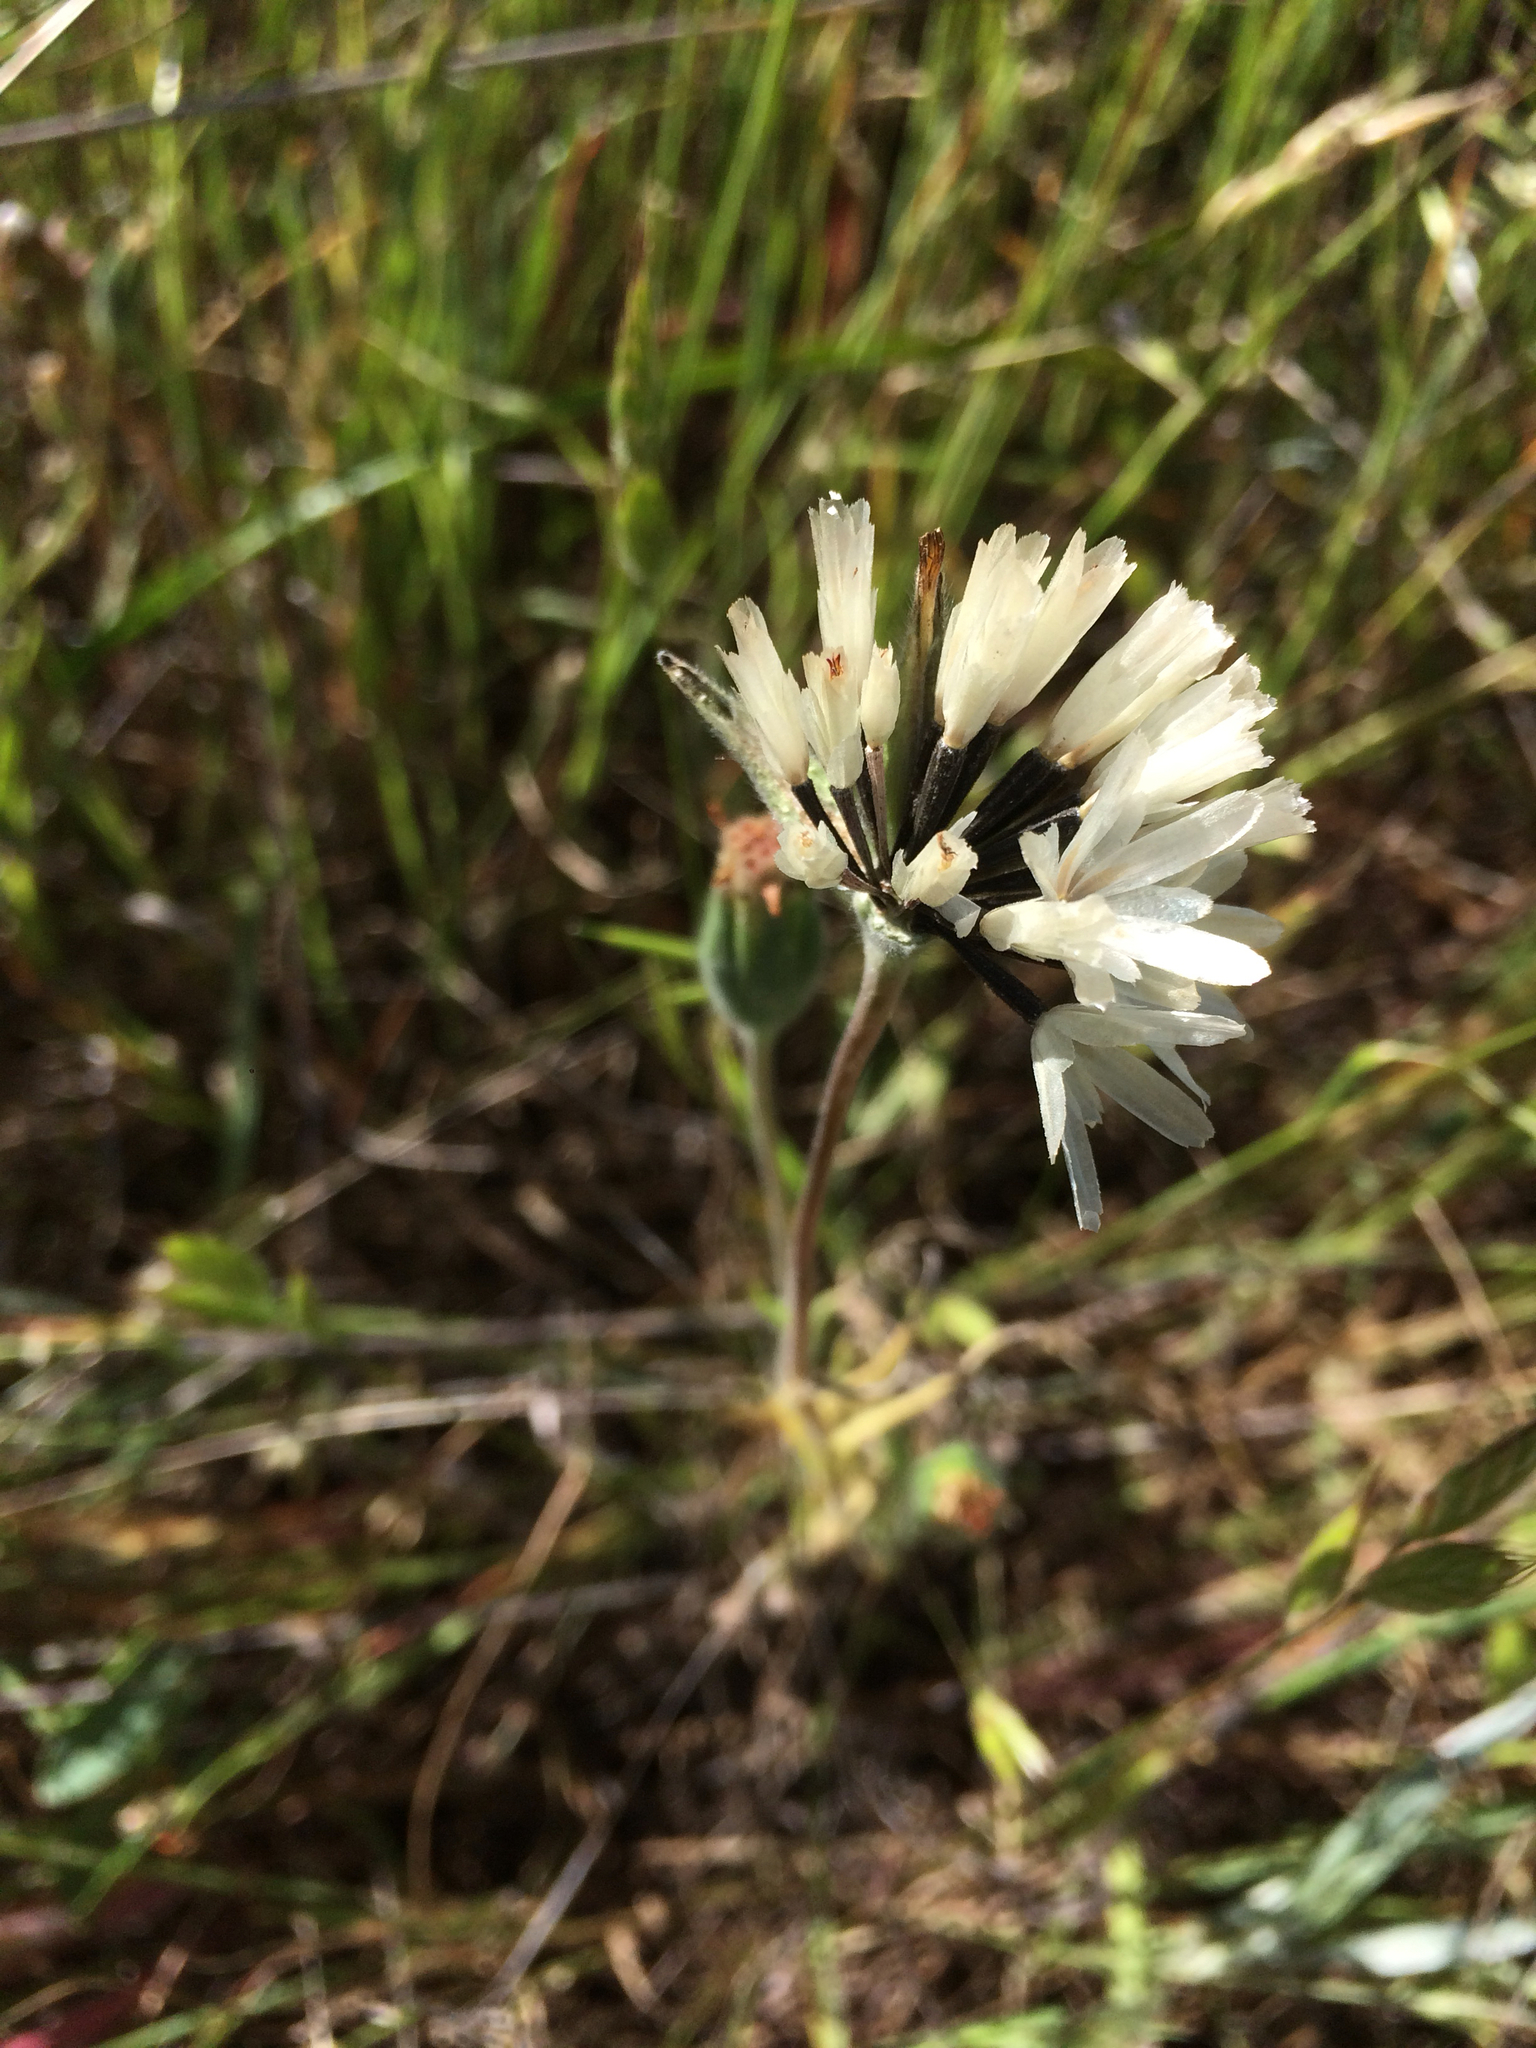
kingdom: Plantae
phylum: Tracheophyta
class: Magnoliopsida
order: Asterales
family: Asteraceae
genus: Achyrachaena
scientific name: Achyrachaena mollis
